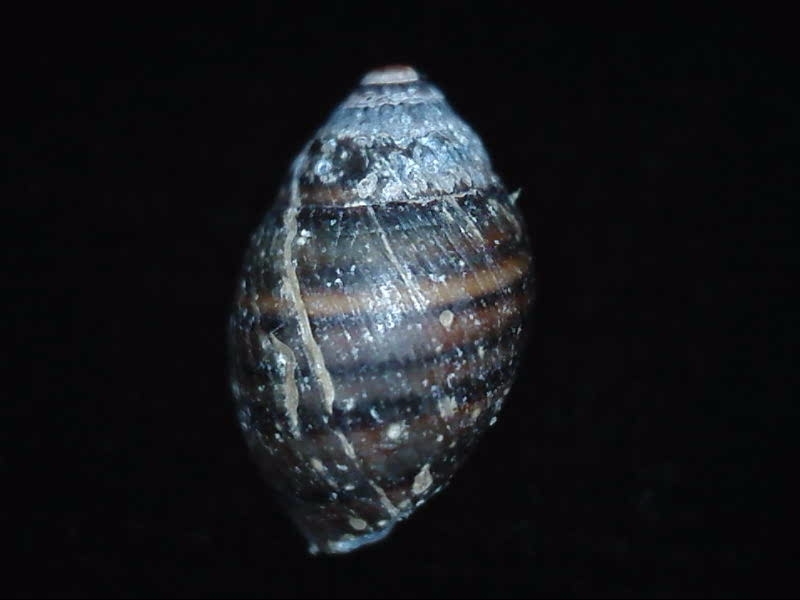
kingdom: Animalia
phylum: Mollusca
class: Gastropoda
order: Ellobiida
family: Ellobiidae
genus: Pleuroloba
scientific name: Pleuroloba costellaris
